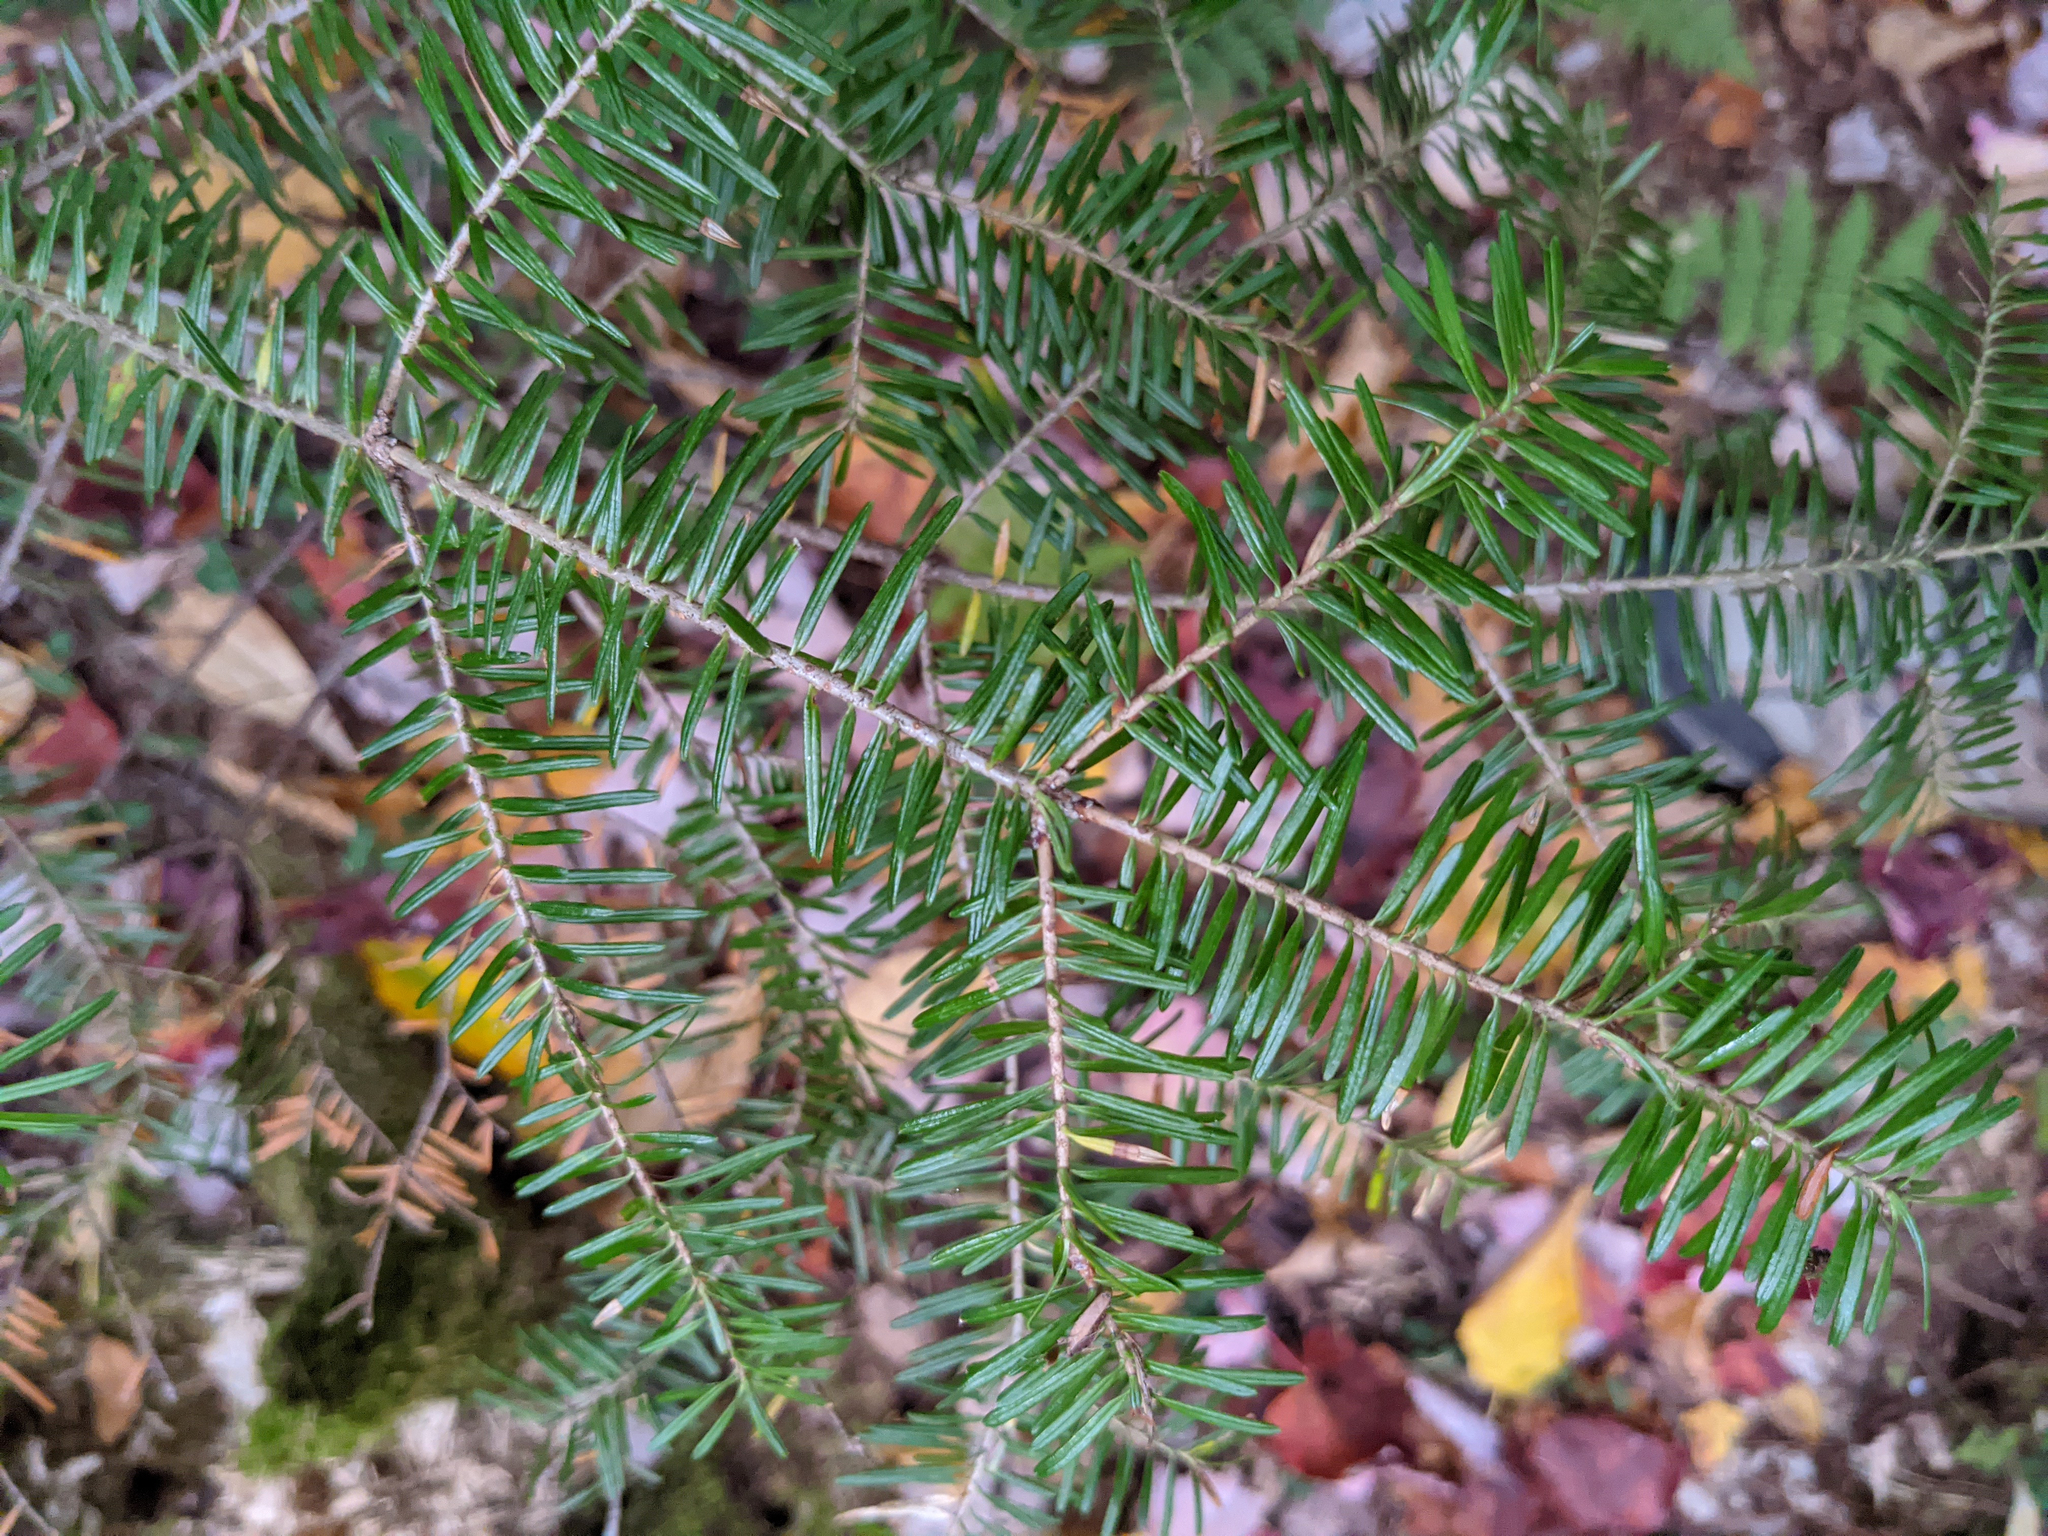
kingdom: Plantae
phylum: Tracheophyta
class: Pinopsida
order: Pinales
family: Pinaceae
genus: Abies
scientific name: Abies balsamea
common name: Balsam fir
